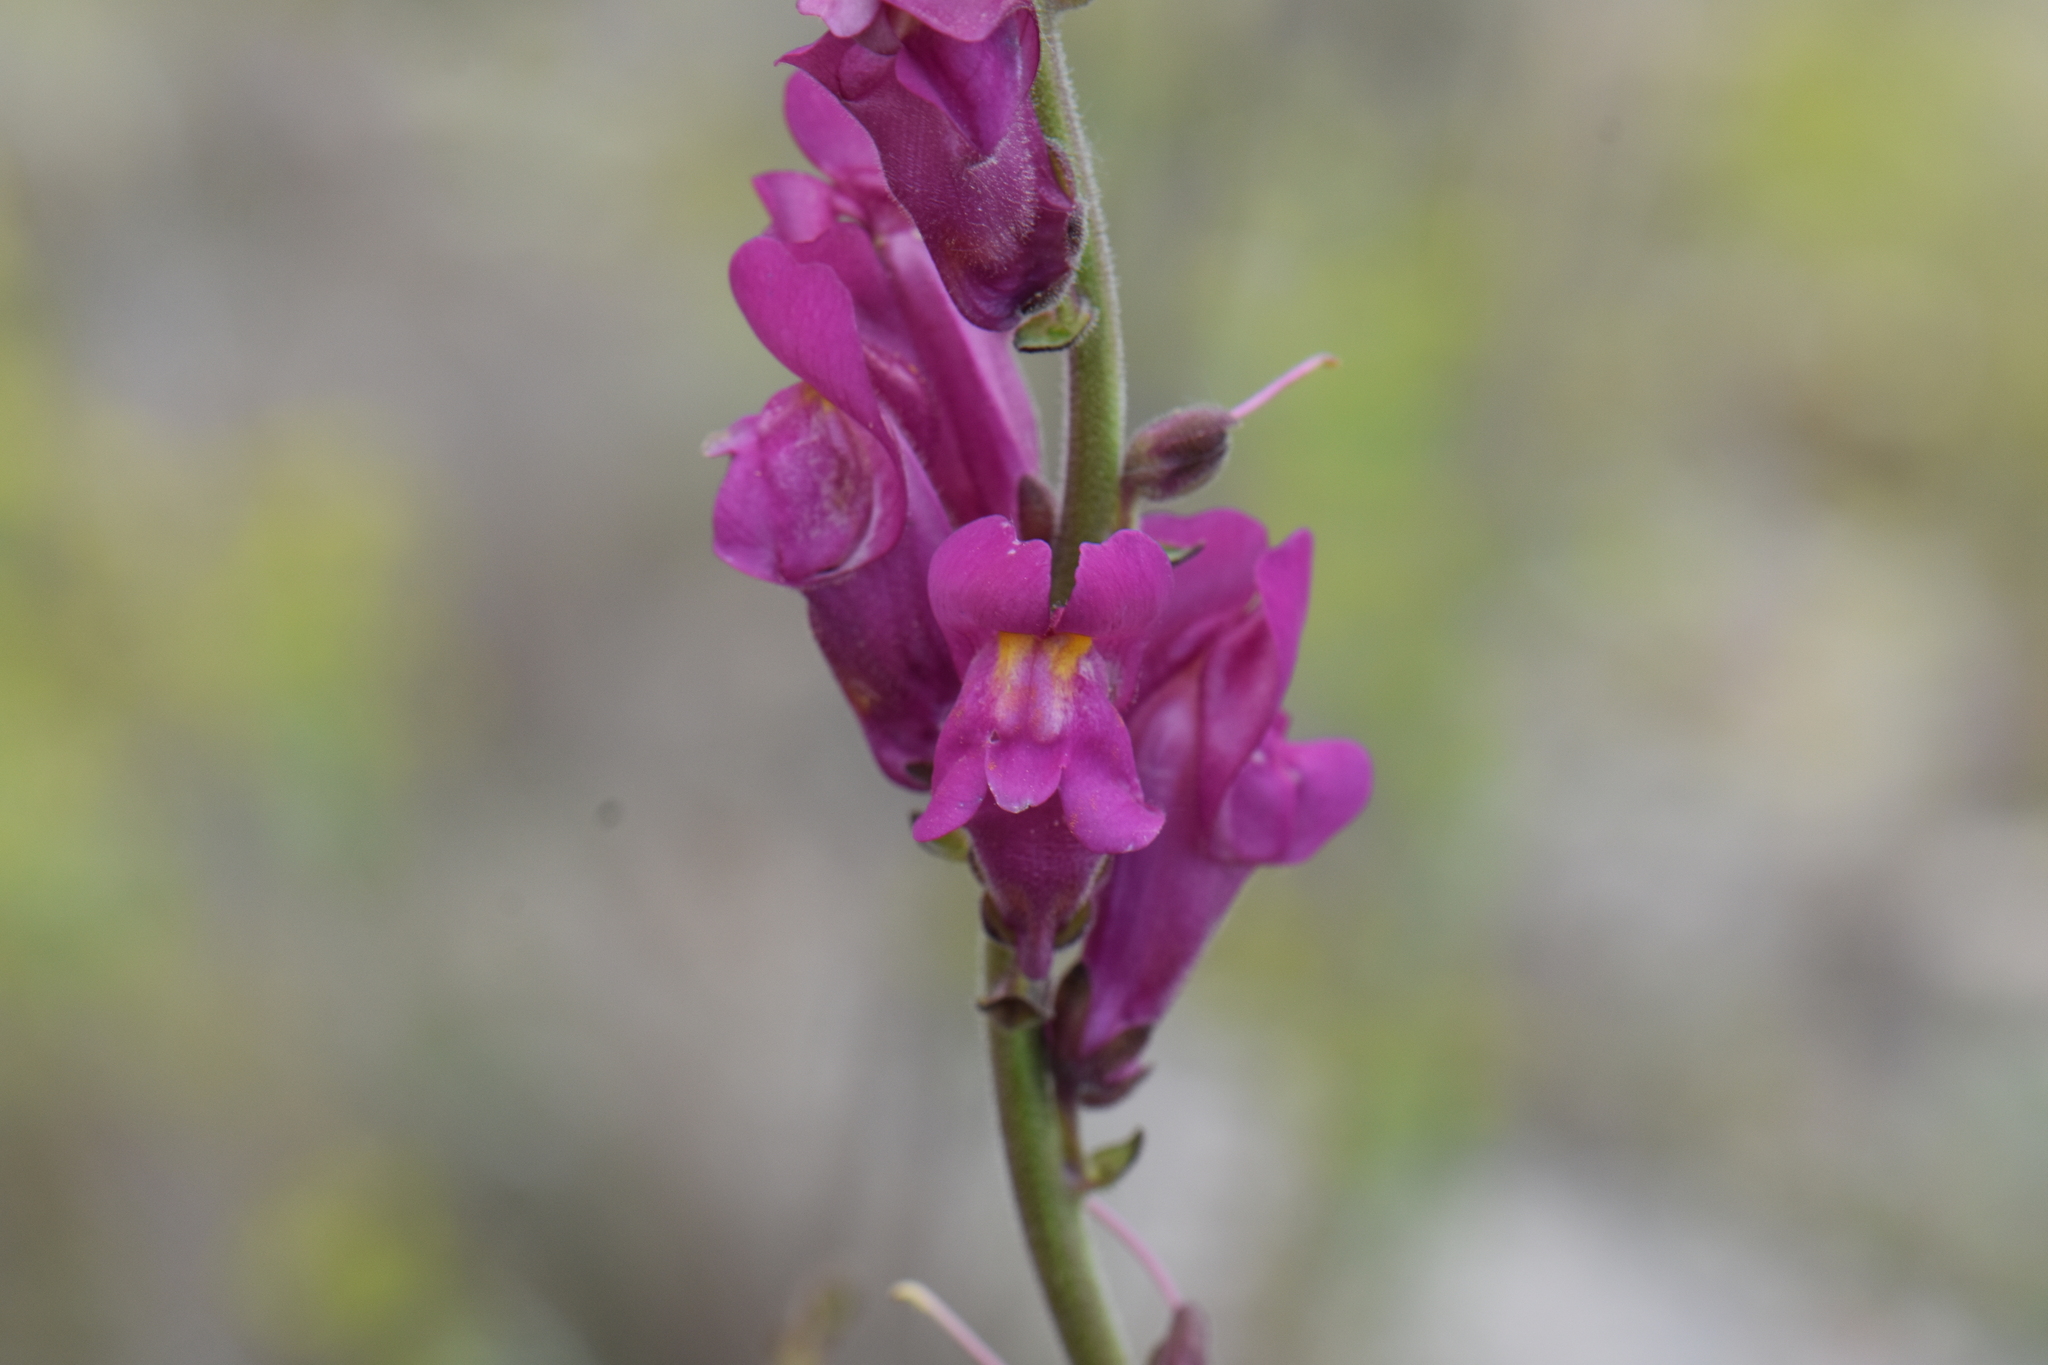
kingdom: Plantae
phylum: Tracheophyta
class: Magnoliopsida
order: Lamiales
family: Plantaginaceae
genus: Antirrhinum
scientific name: Antirrhinum majus
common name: Snapdragon
